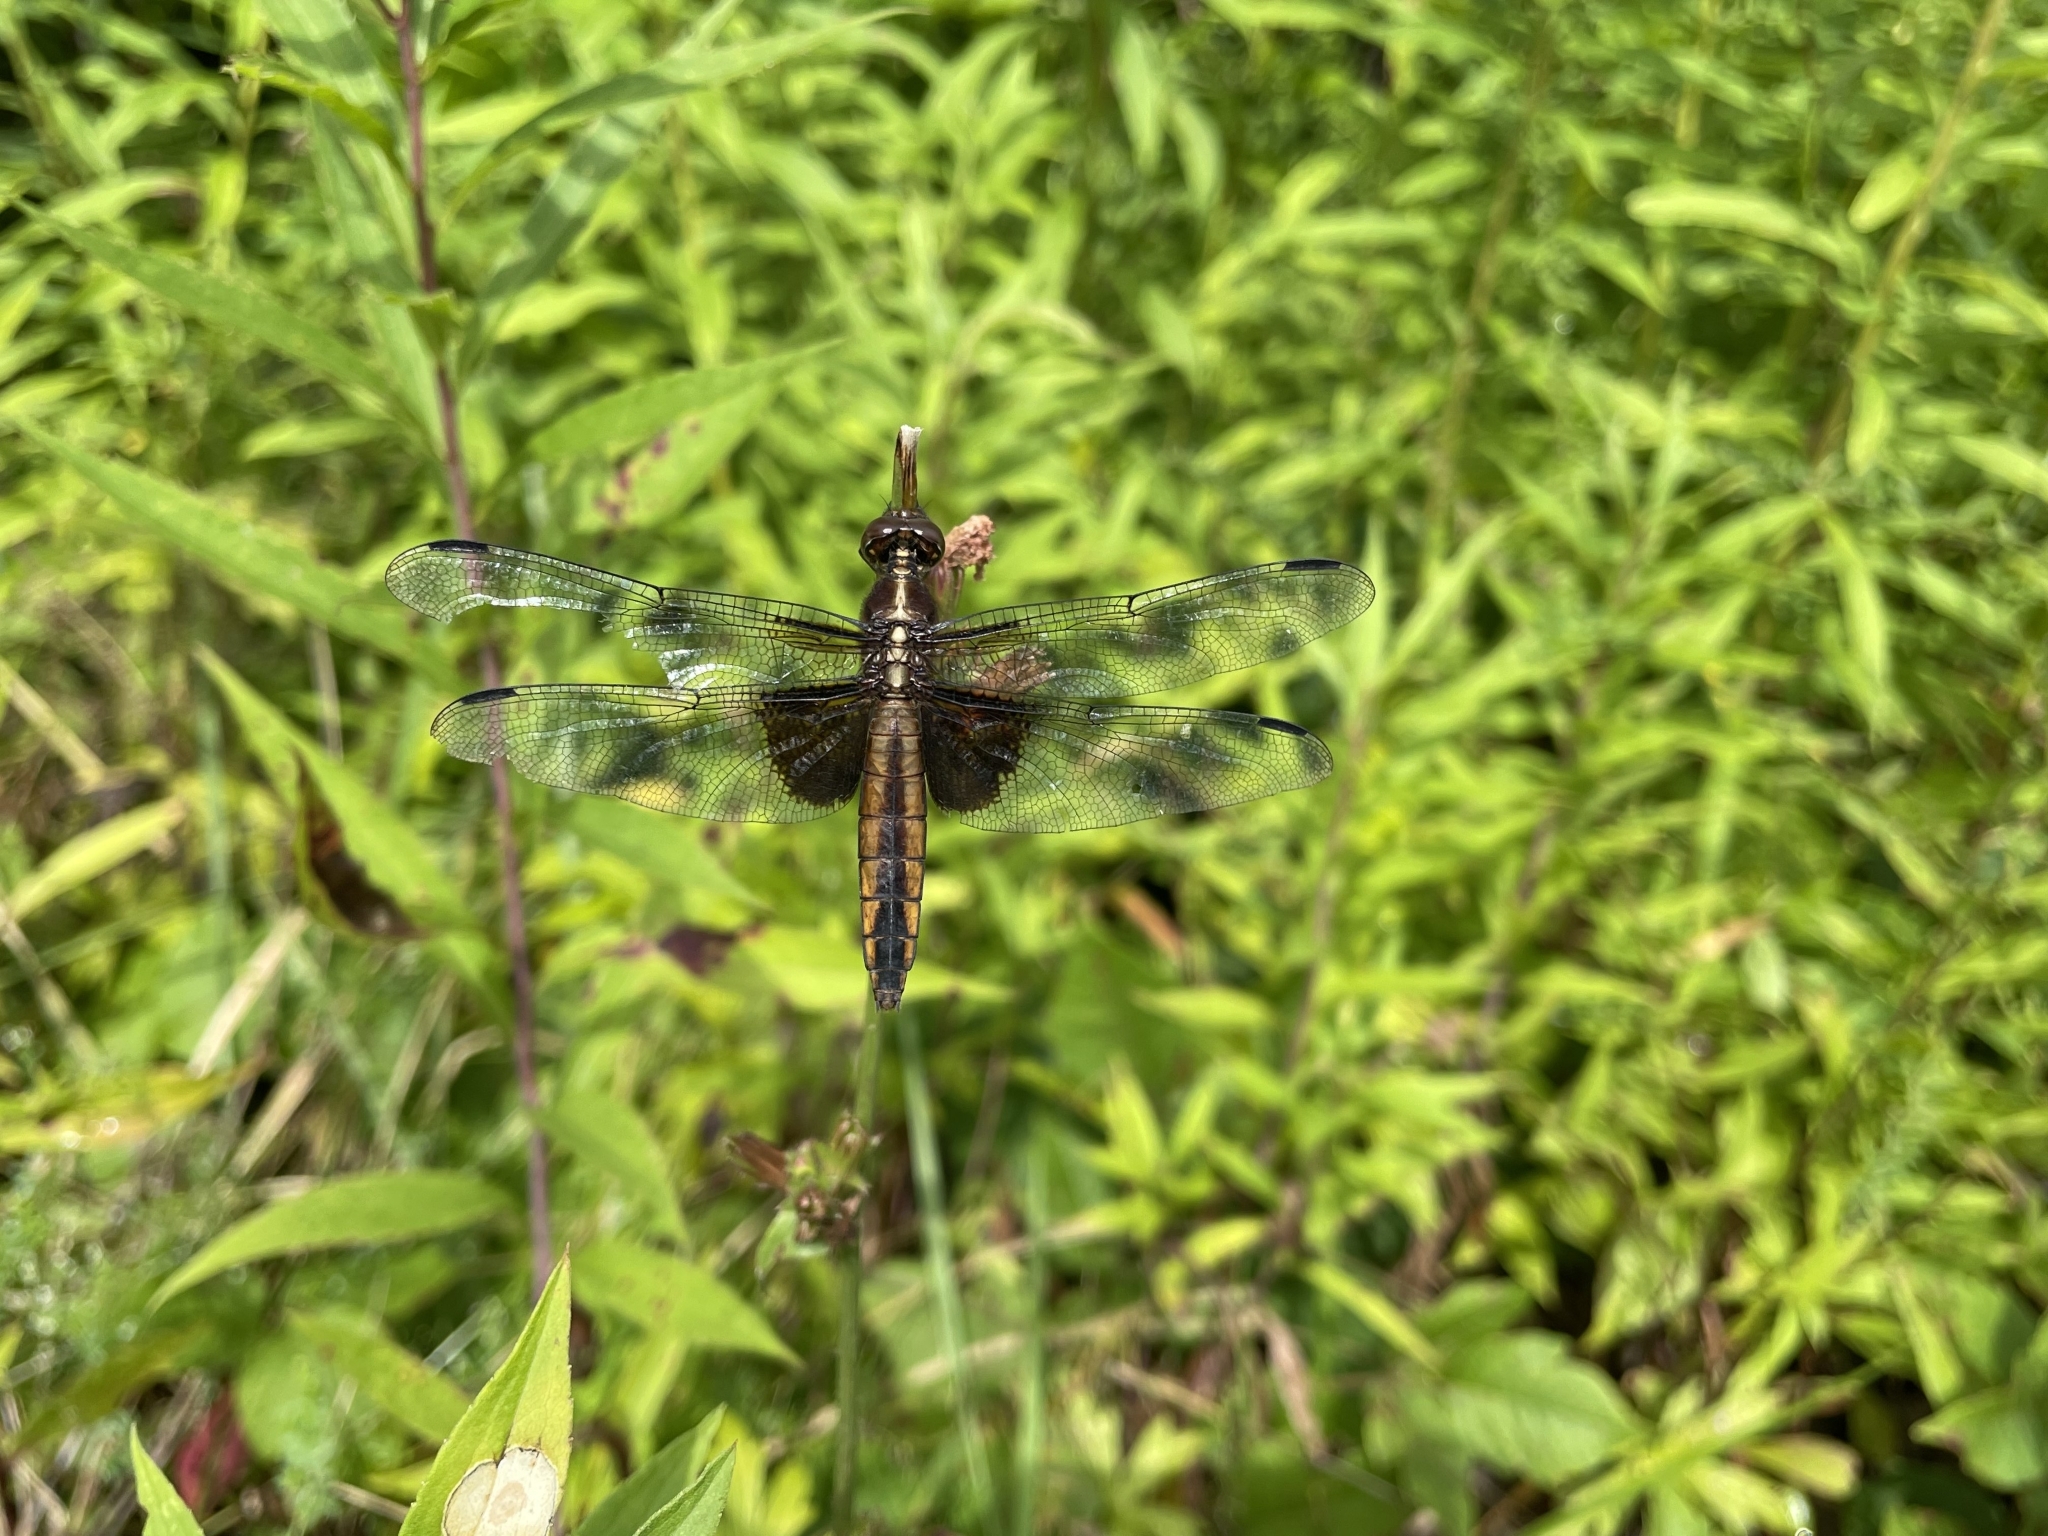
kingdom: Animalia
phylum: Arthropoda
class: Insecta
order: Odonata
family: Libellulidae
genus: Libellula
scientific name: Libellula luctuosa
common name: Widow skimmer
